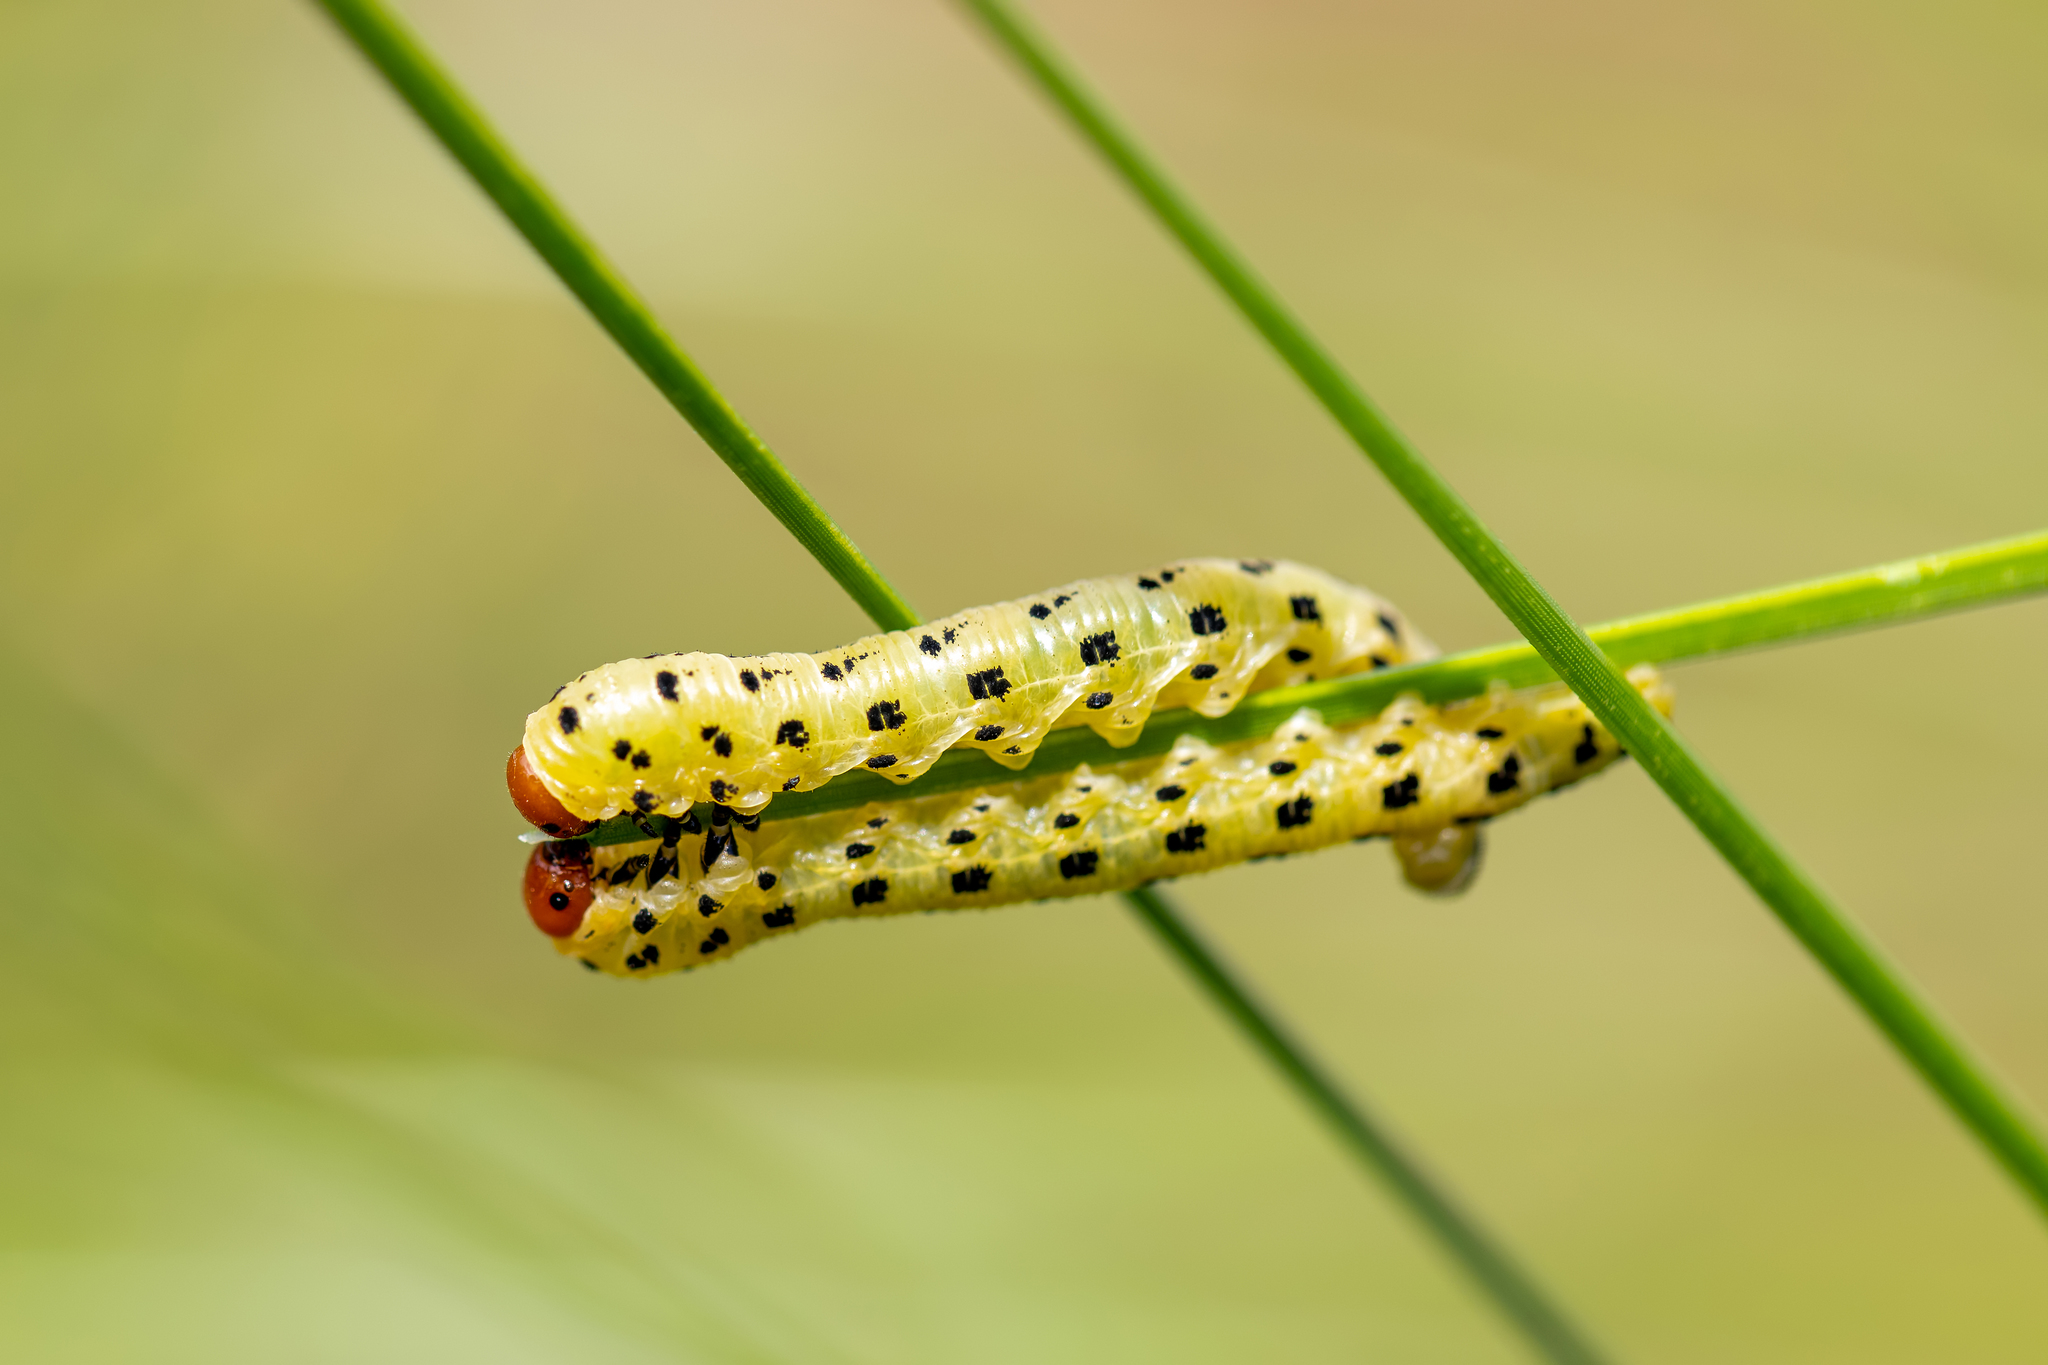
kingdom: Animalia
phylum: Arthropoda
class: Insecta
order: Hymenoptera
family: Diprionidae
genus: Neodiprion
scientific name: Neodiprion lecontei
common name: Redheaded pine sawfly
